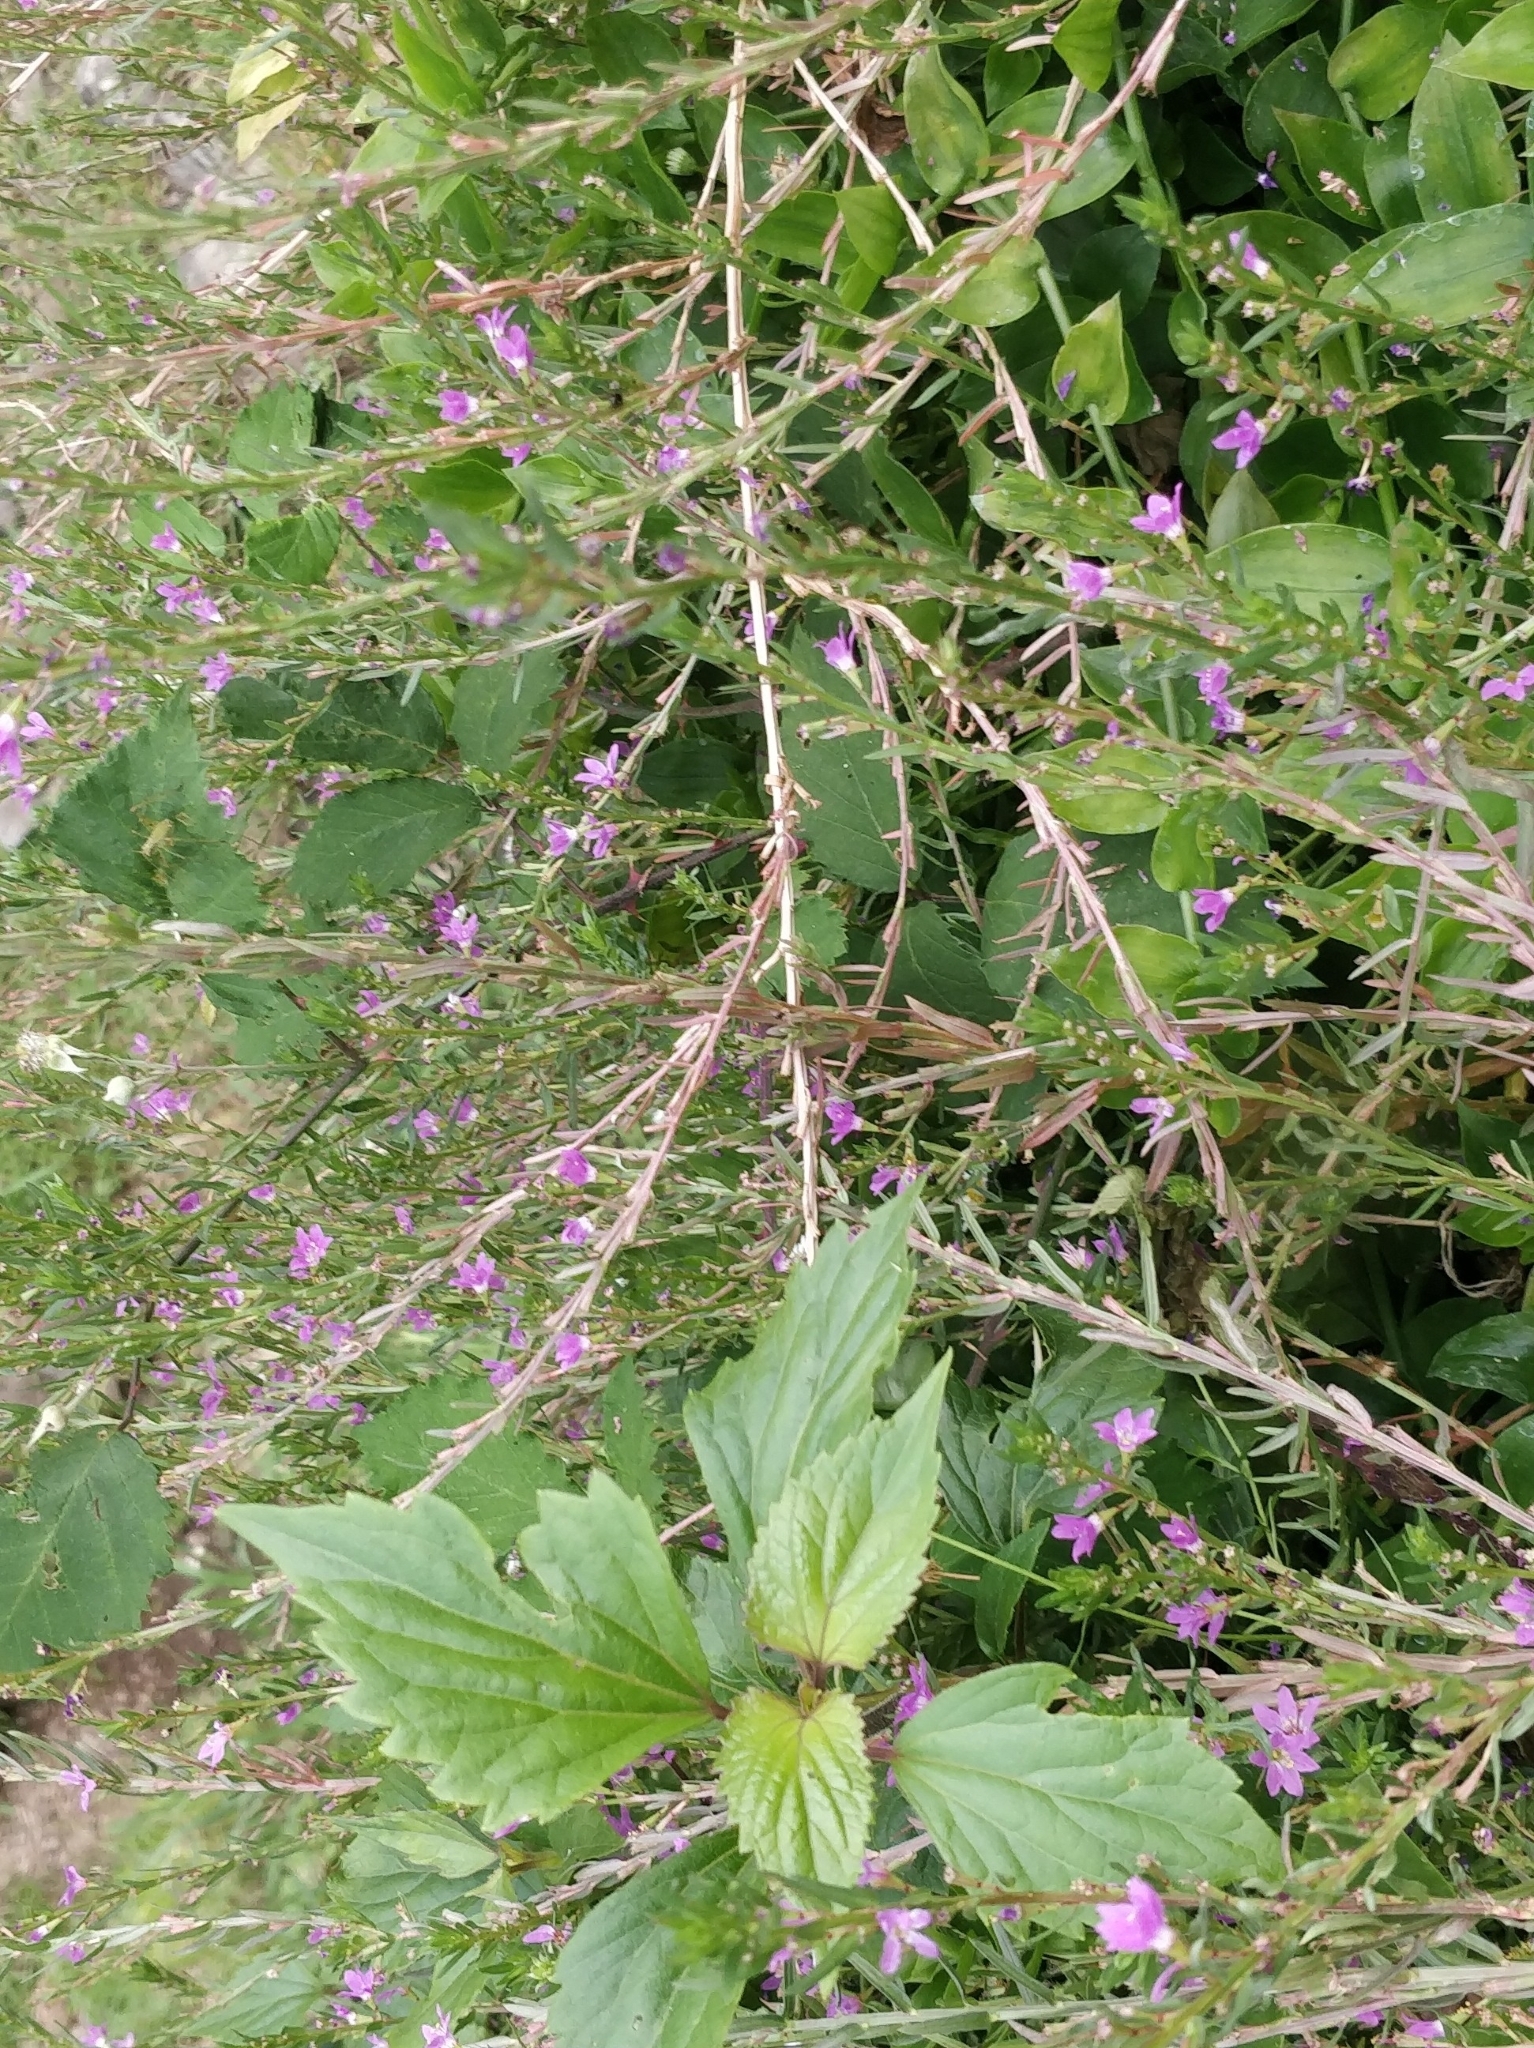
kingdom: Plantae
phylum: Tracheophyta
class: Magnoliopsida
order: Myrtales
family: Lythraceae
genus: Lythrum
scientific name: Lythrum junceum
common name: False grass-poly
